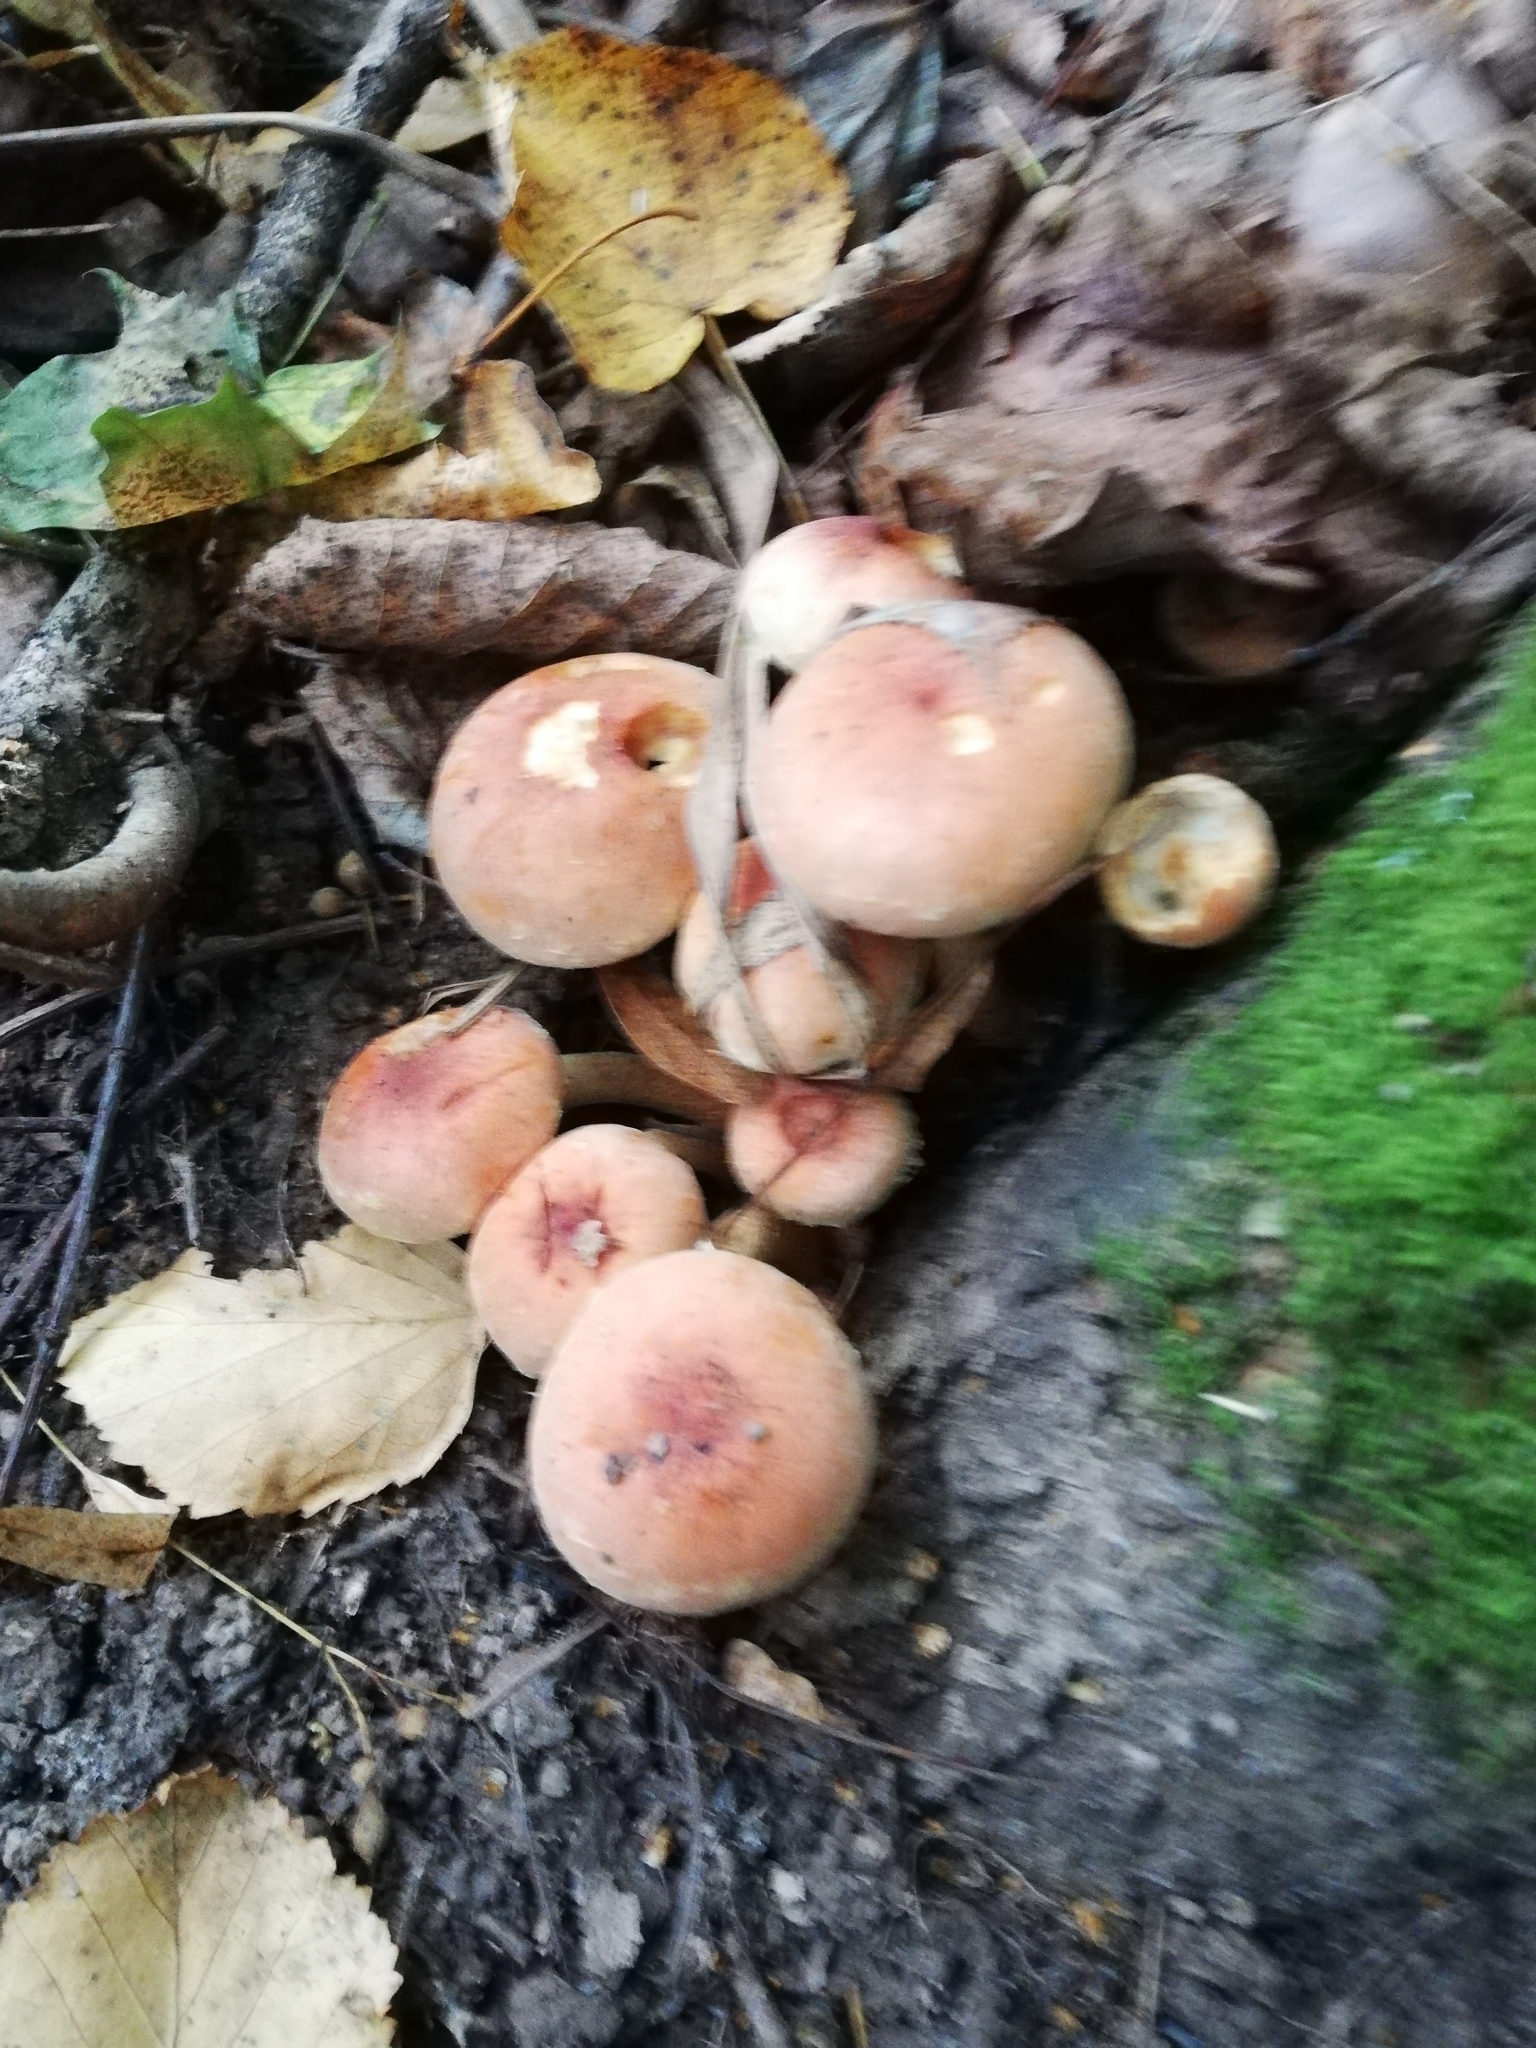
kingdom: Fungi
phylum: Basidiomycota
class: Agaricomycetes
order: Agaricales
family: Strophariaceae
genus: Hypholoma
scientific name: Hypholoma lateritium
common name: Brick caps
